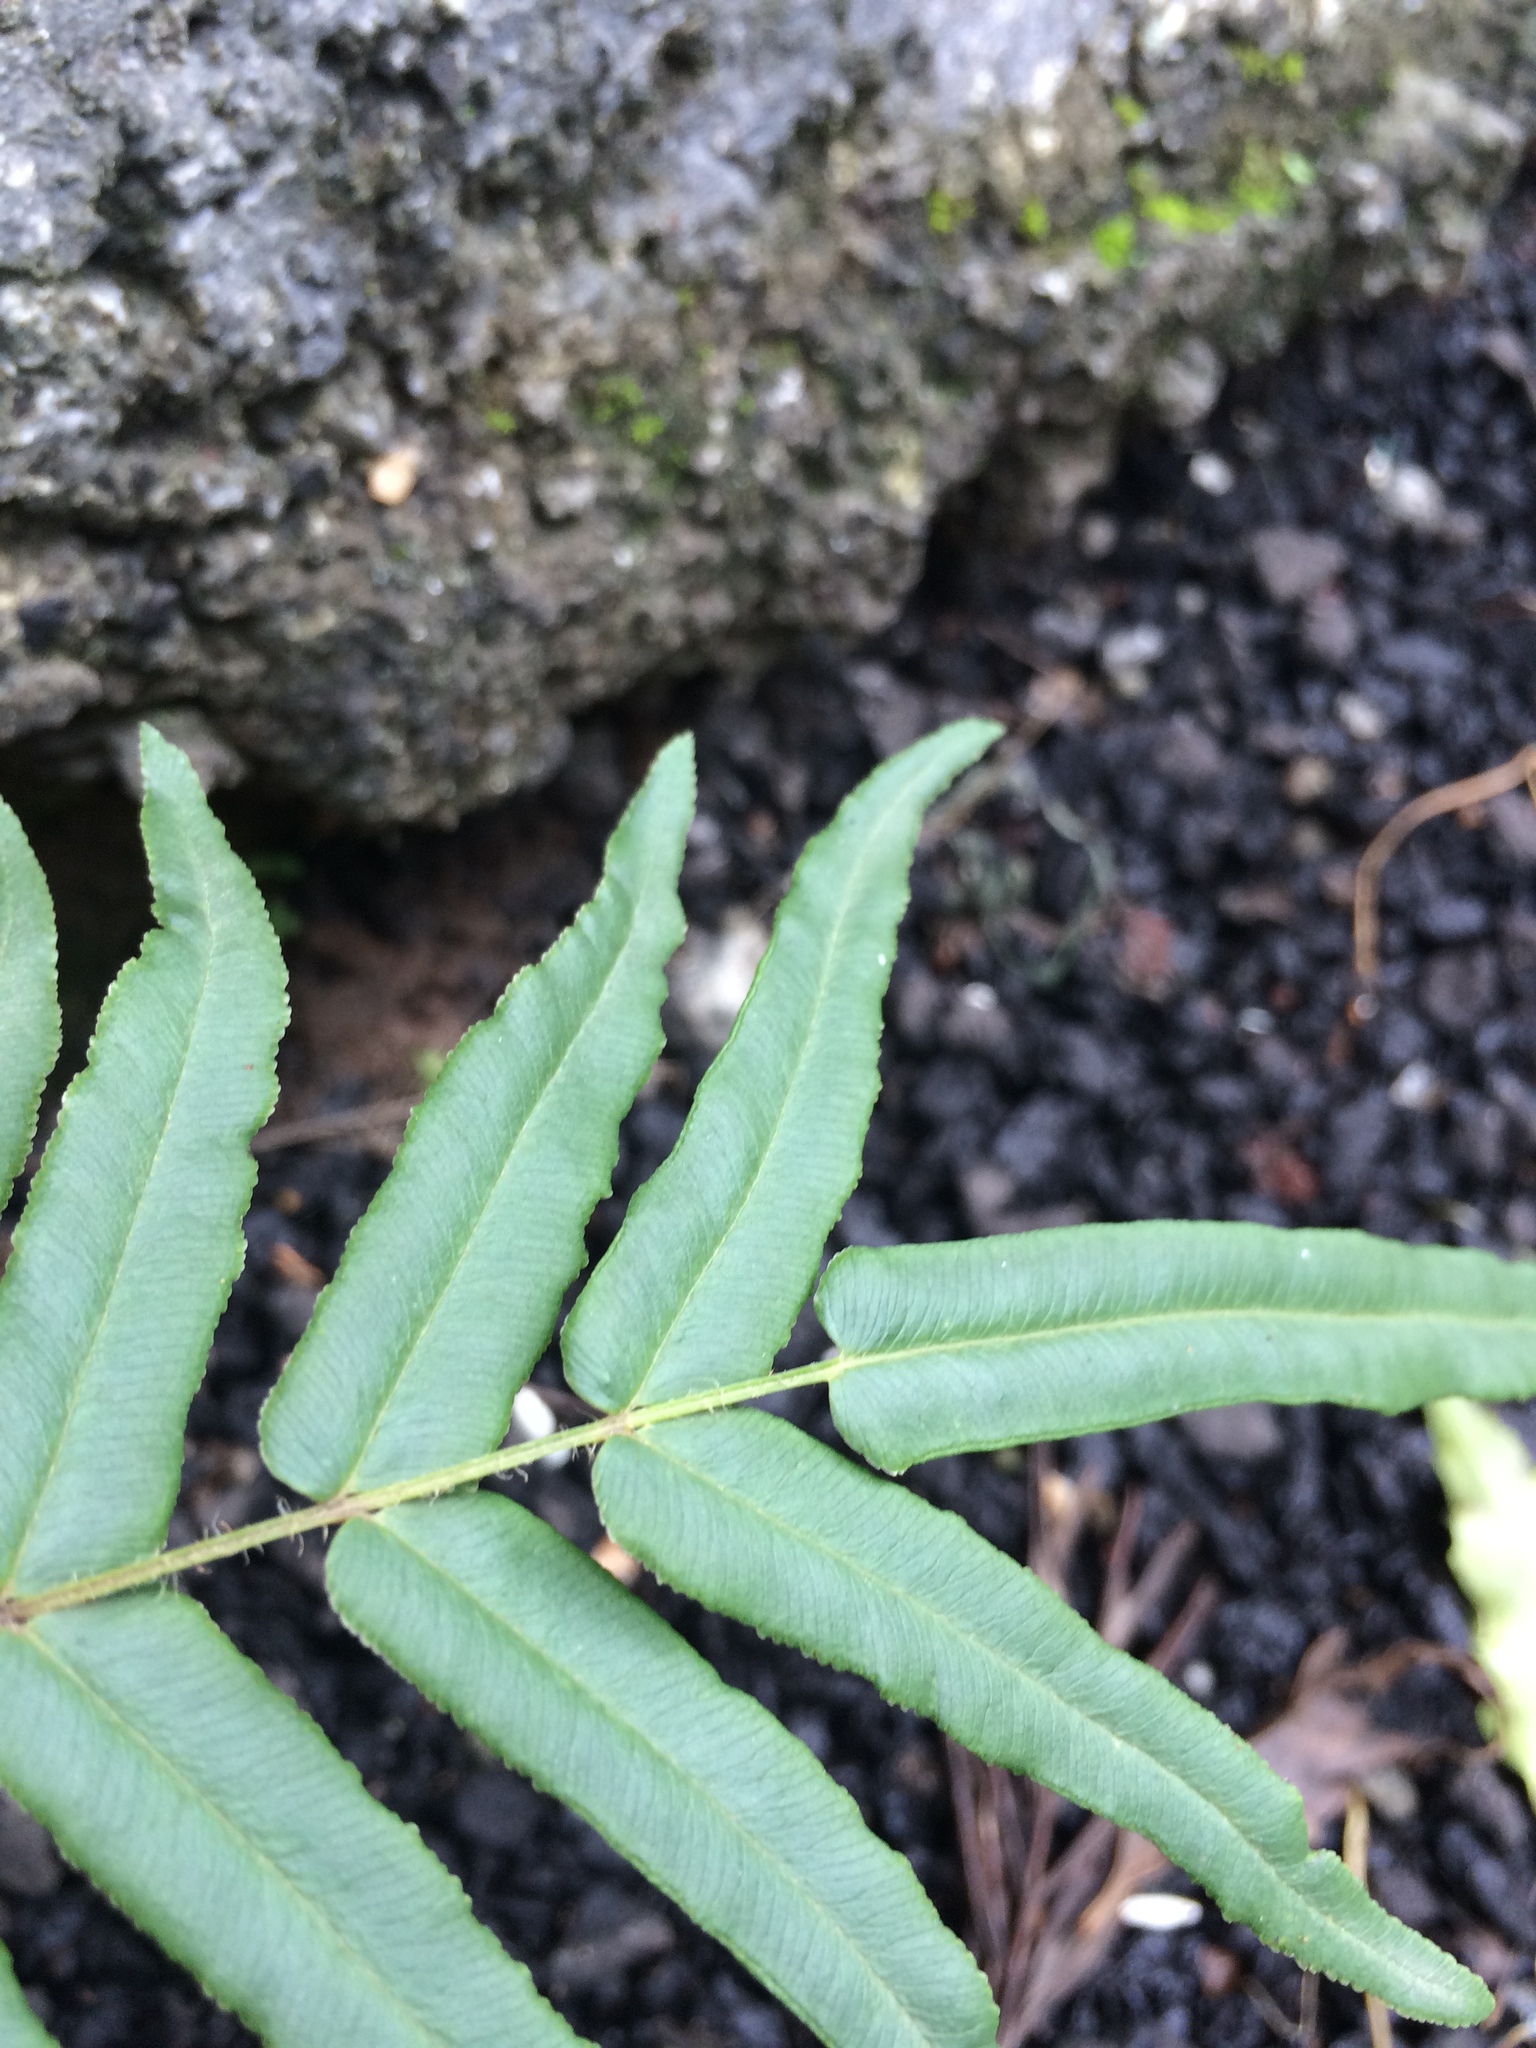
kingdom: Plantae
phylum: Tracheophyta
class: Polypodiopsida
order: Polypodiales
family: Pteridaceae
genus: Pteris
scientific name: Pteris vittata
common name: Ladder brake
